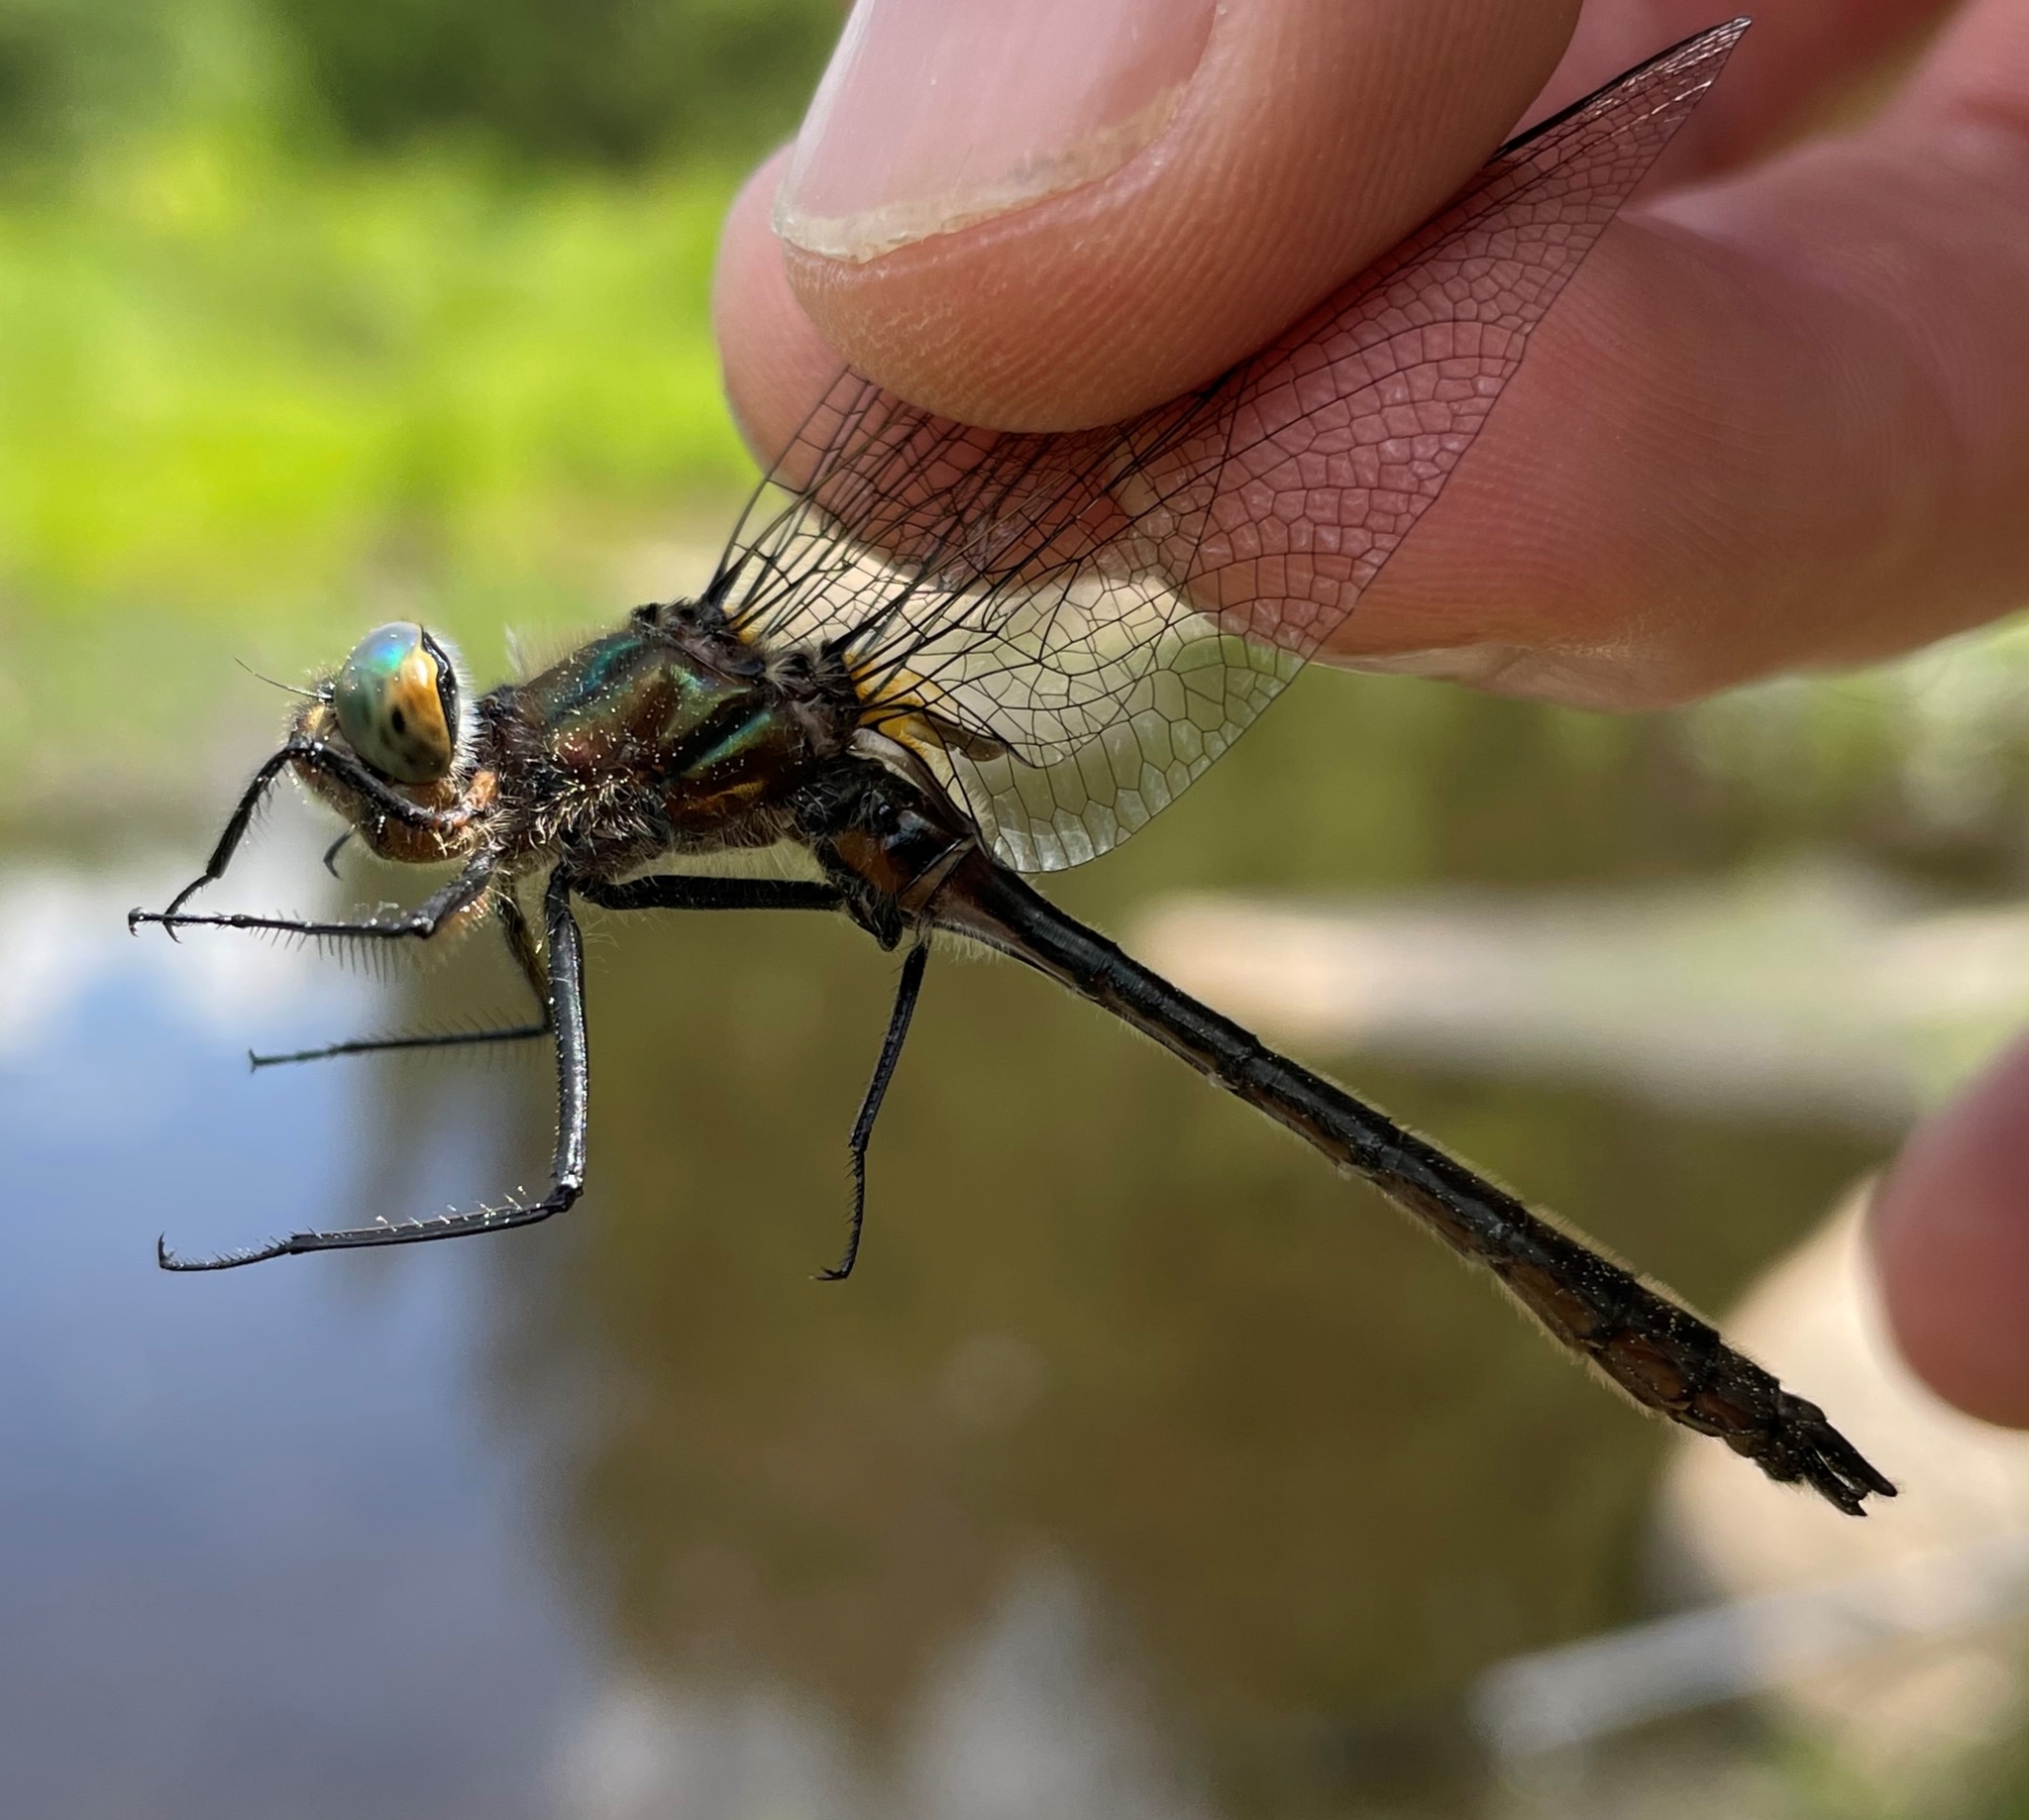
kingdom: Animalia
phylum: Arthropoda
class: Insecta
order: Odonata
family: Corduliidae
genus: Cordulia
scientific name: Cordulia shurtleffii
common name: American emerald
